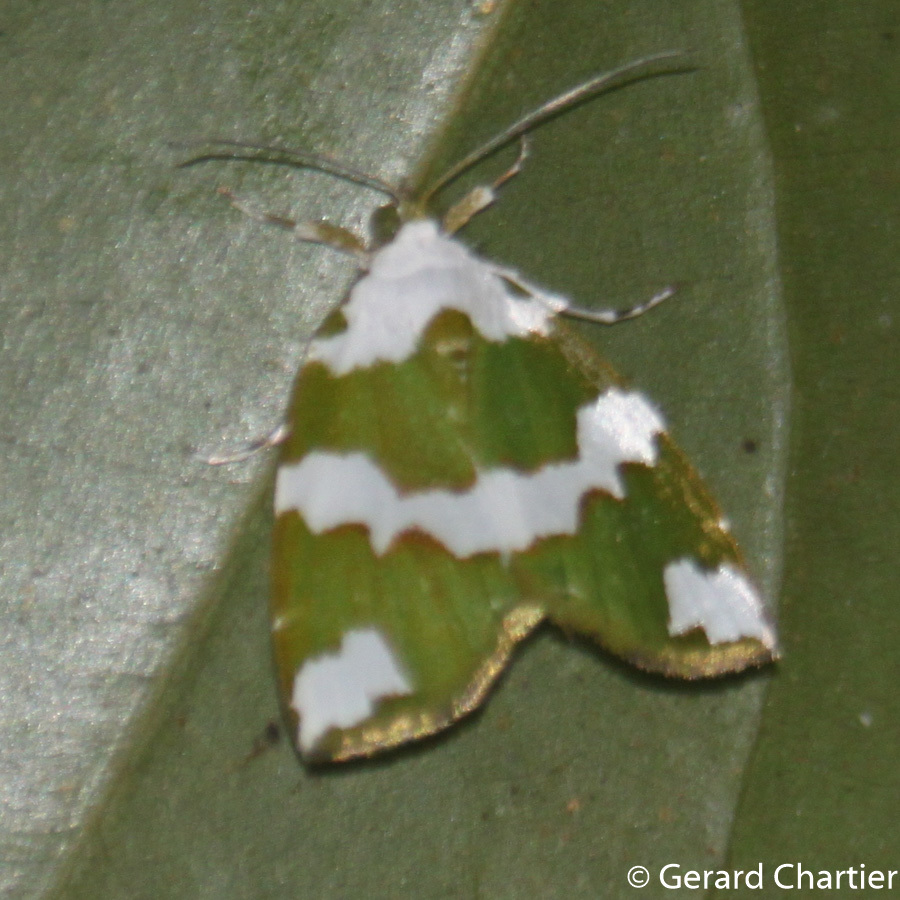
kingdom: Animalia
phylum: Arthropoda
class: Insecta
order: Lepidoptera
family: Nolidae
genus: Ariolica
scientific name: Ariolica peresa
